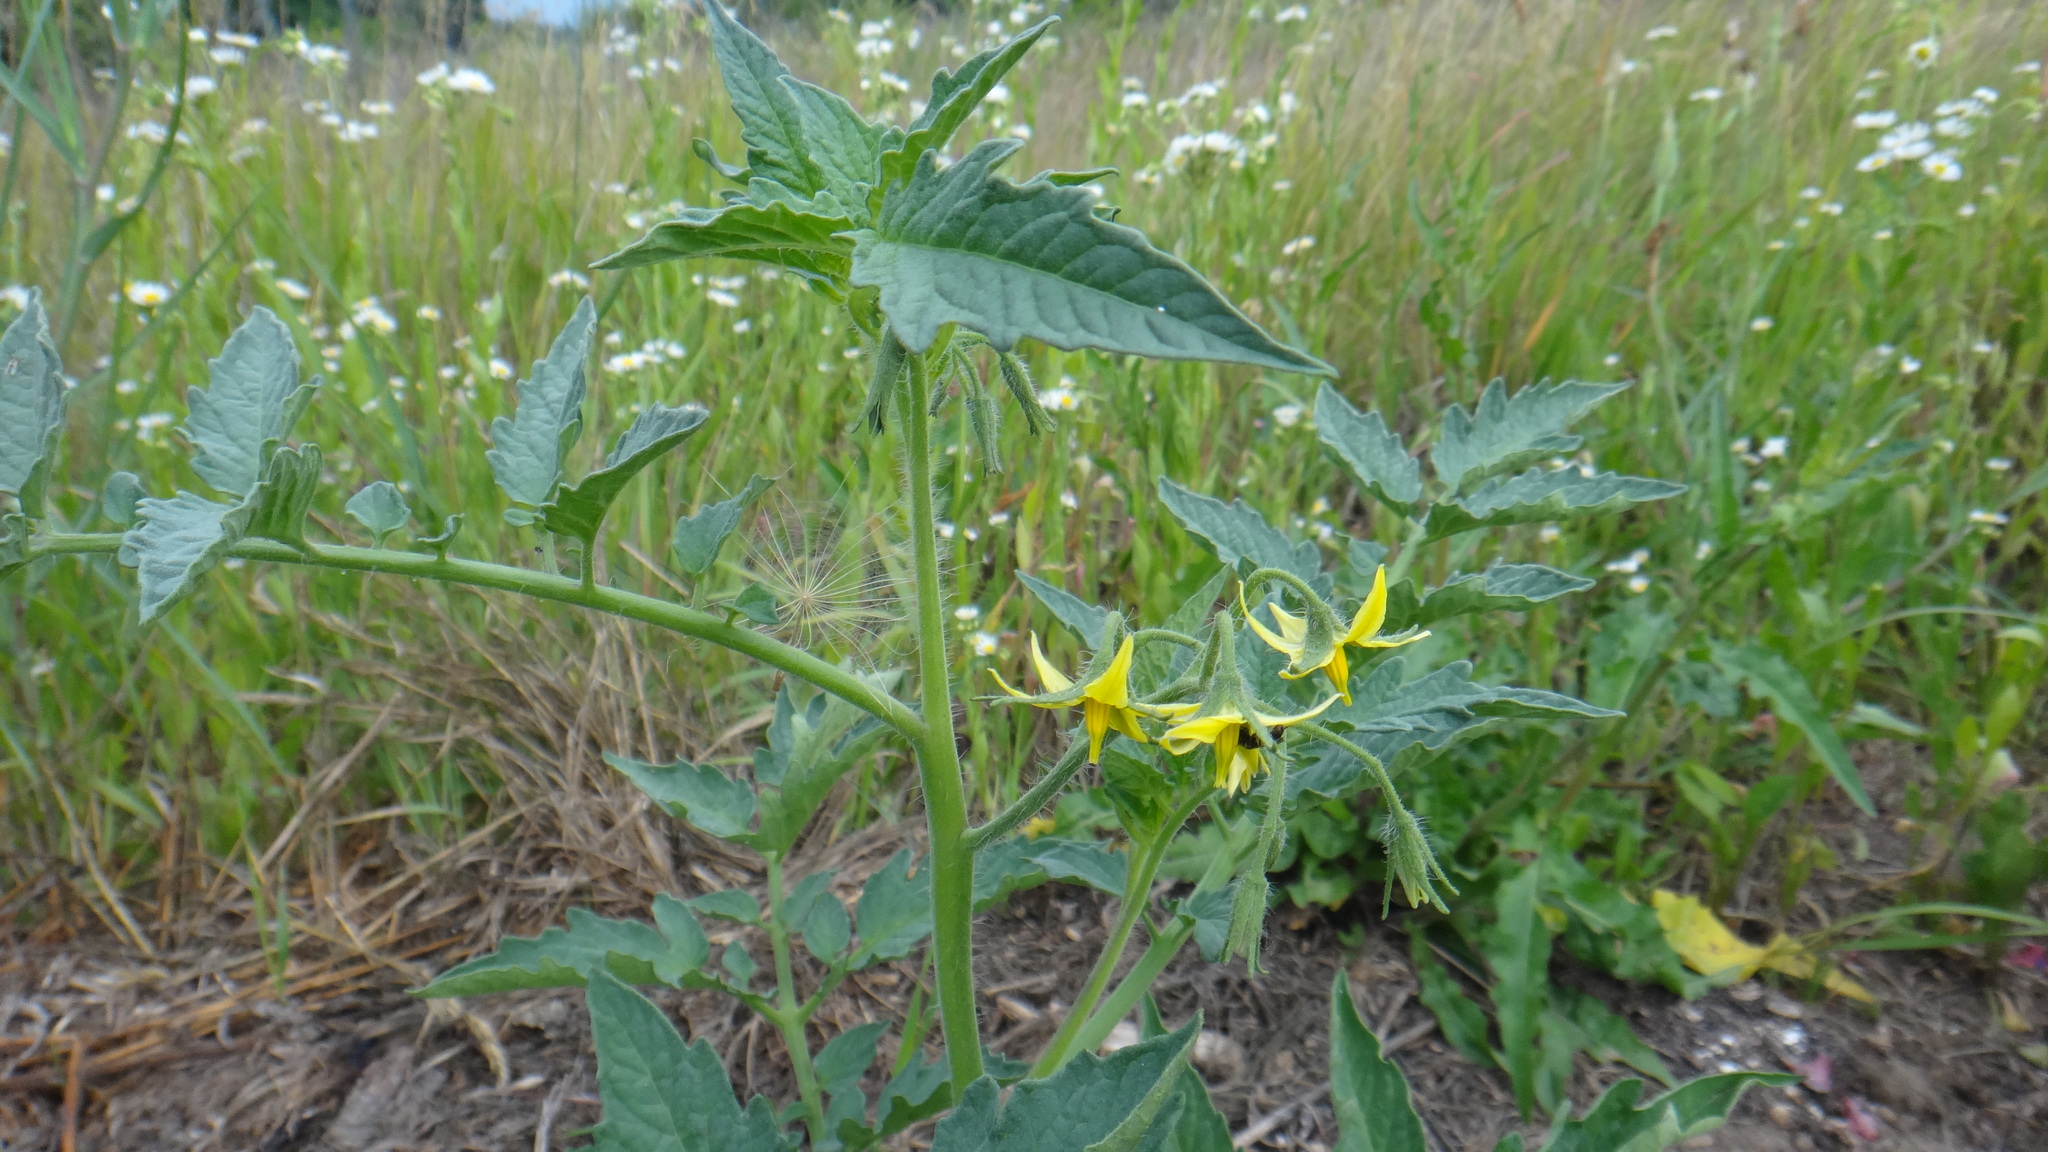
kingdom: Plantae
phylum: Tracheophyta
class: Magnoliopsida
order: Solanales
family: Solanaceae
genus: Solanum
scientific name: Solanum lycopersicum
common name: Garden tomato
